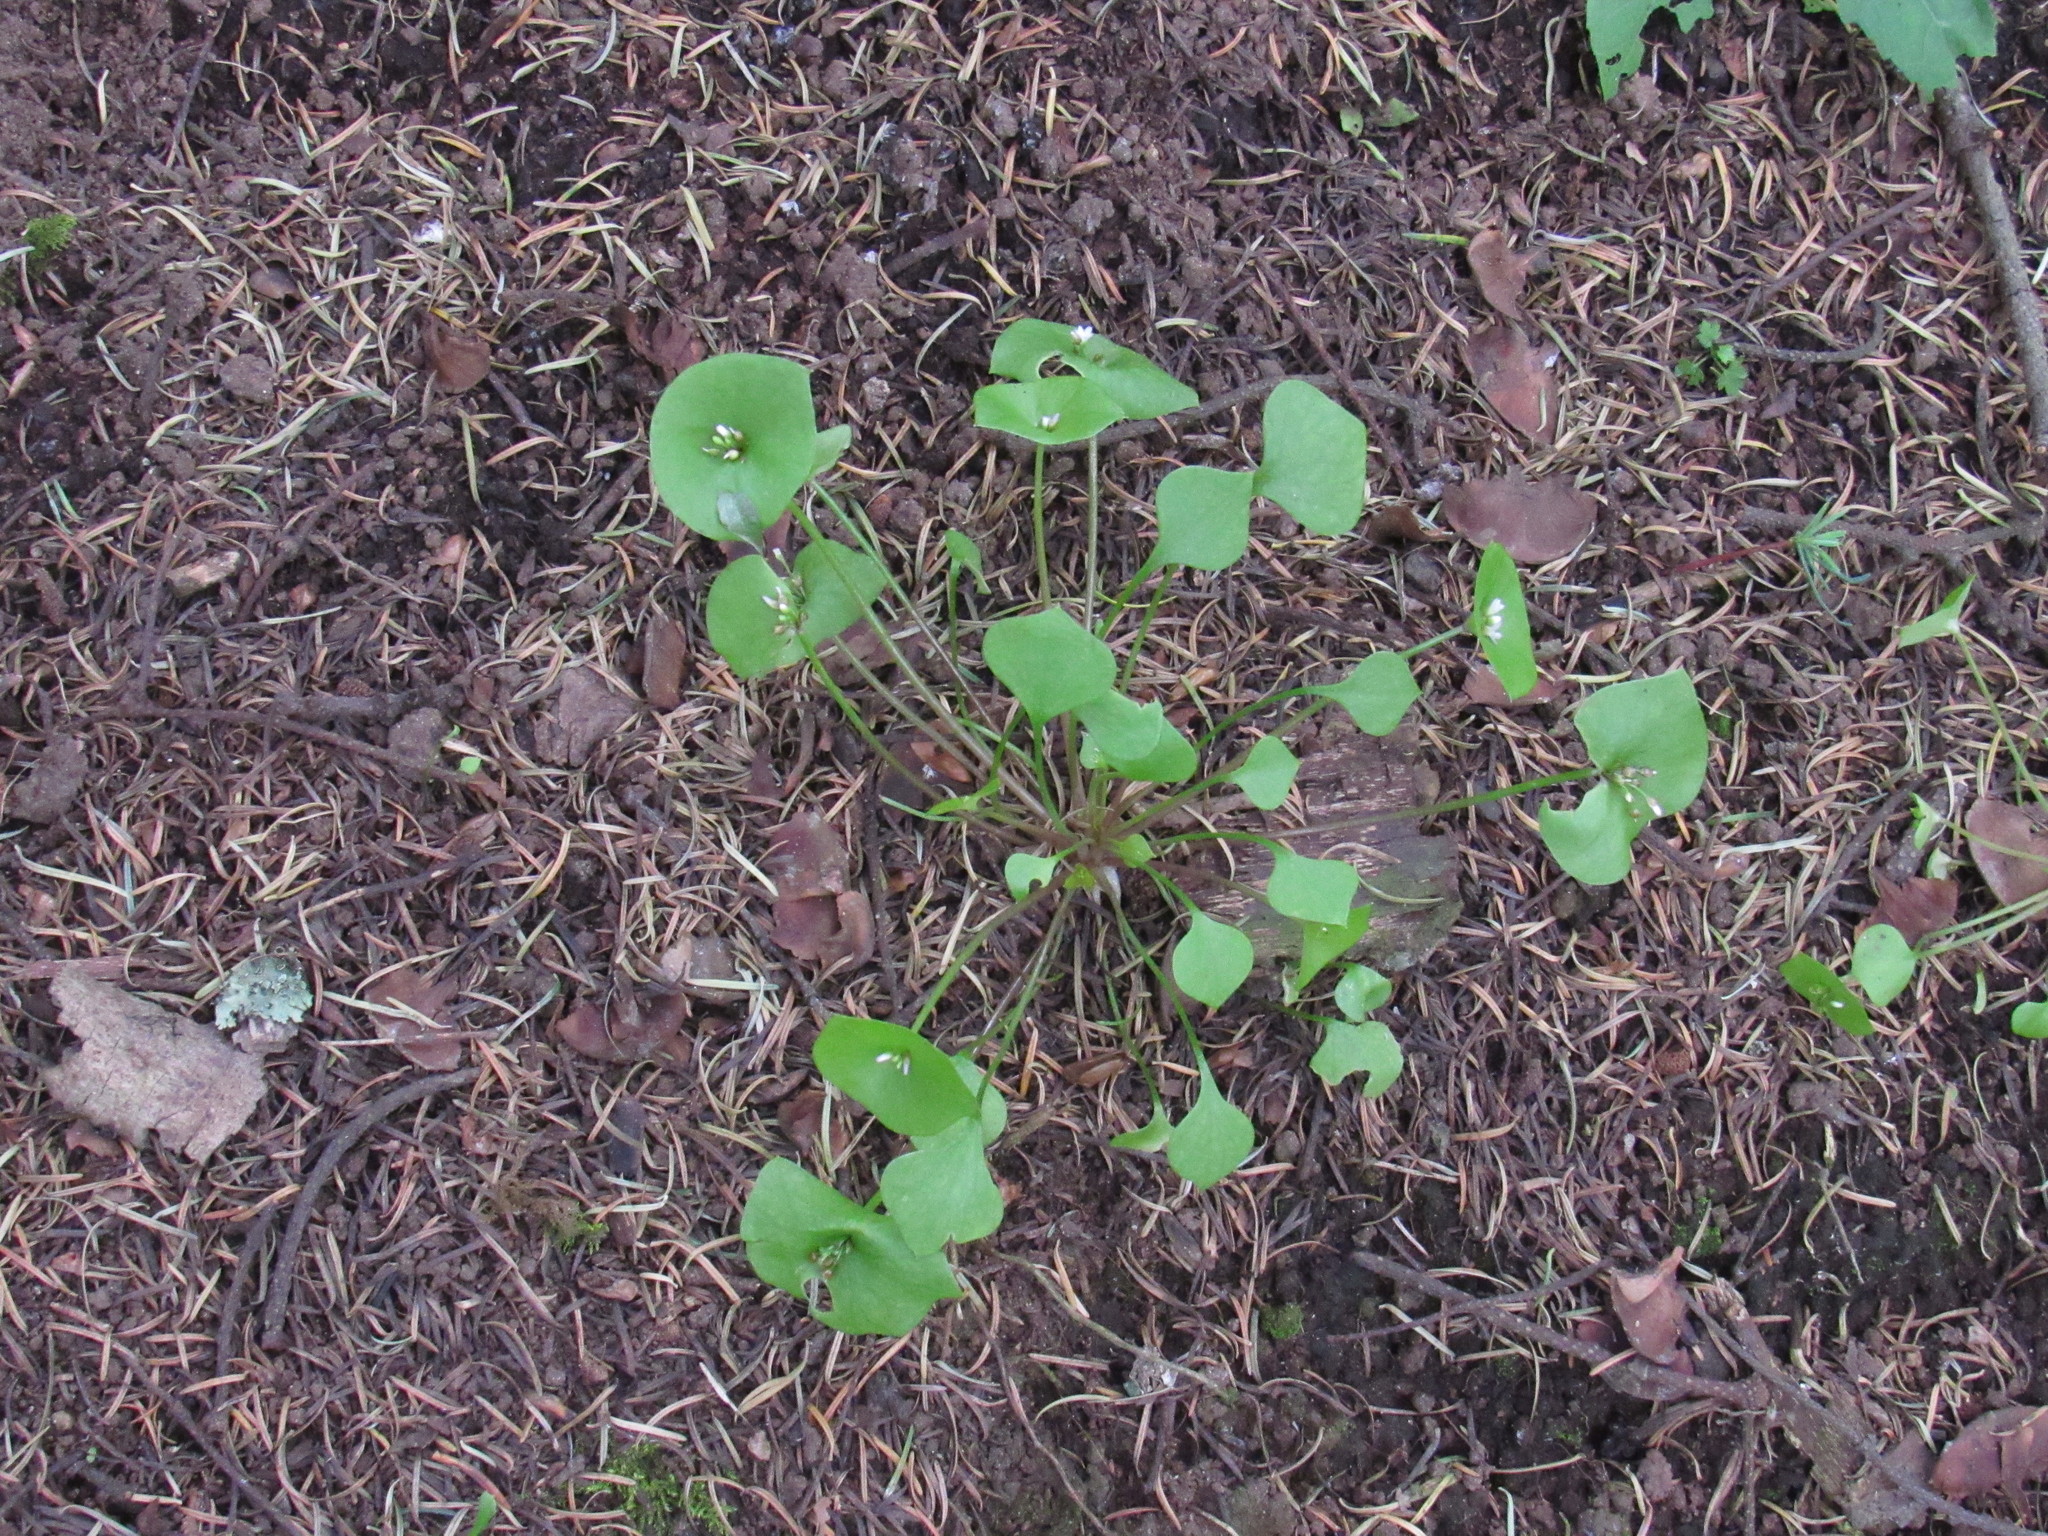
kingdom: Plantae
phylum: Tracheophyta
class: Magnoliopsida
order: Caryophyllales
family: Montiaceae
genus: Claytonia
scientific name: Claytonia perfoliata
